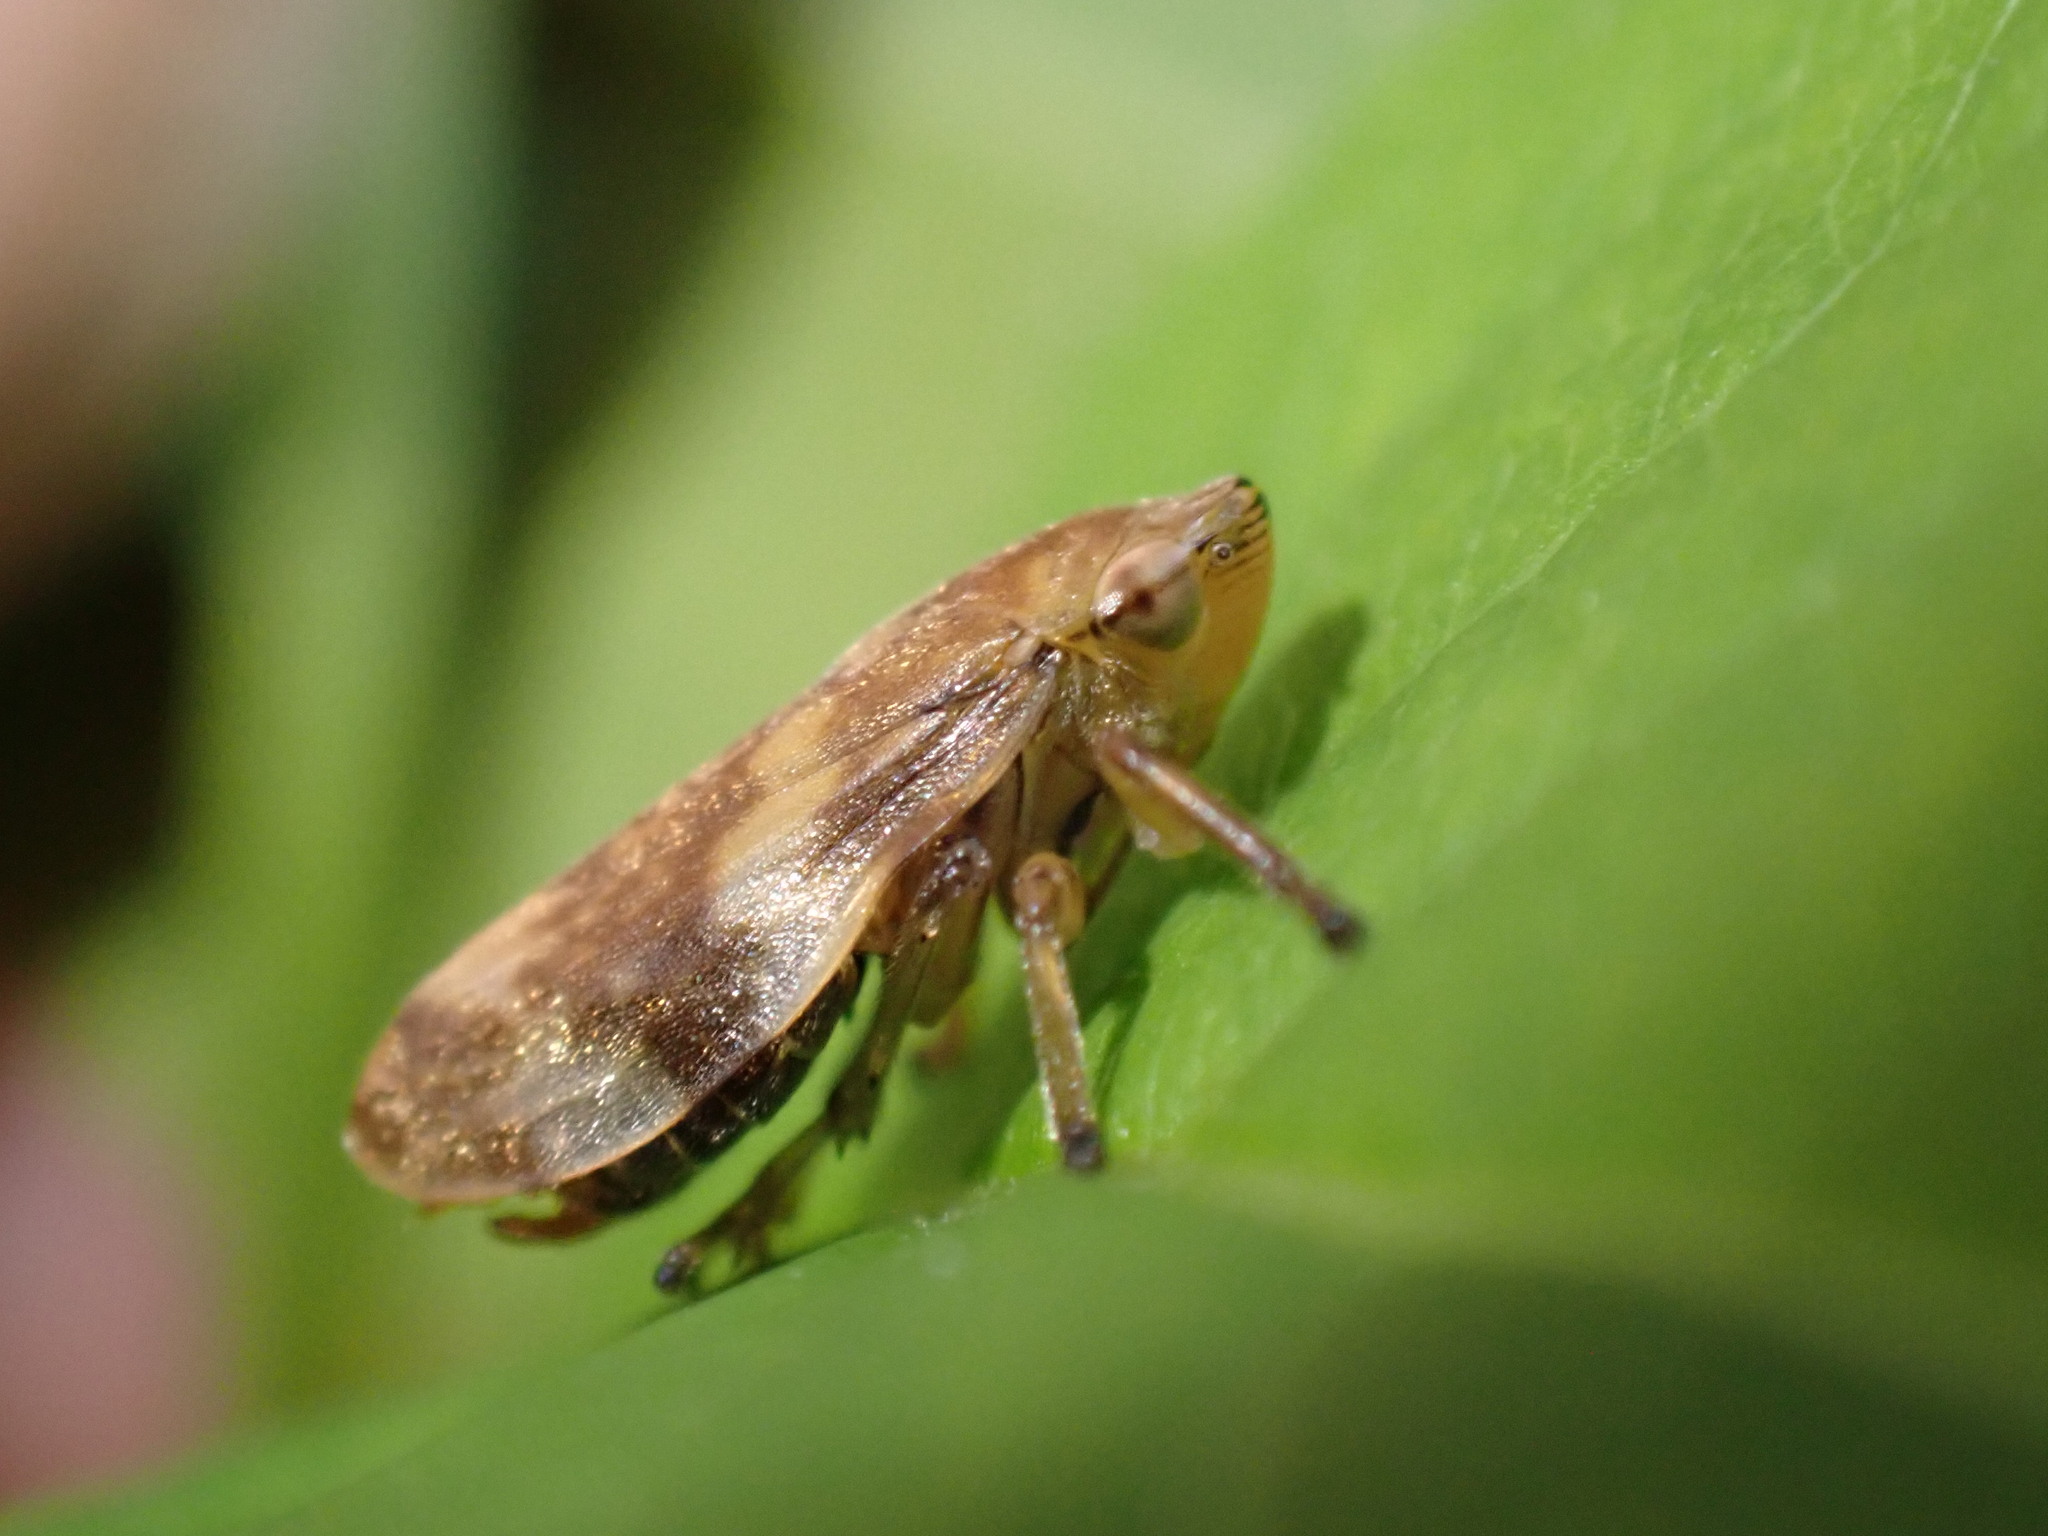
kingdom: Animalia
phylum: Arthropoda
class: Insecta
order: Hemiptera
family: Aphrophoridae
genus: Philaenus
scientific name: Philaenus spumarius
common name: Meadow spittlebug
